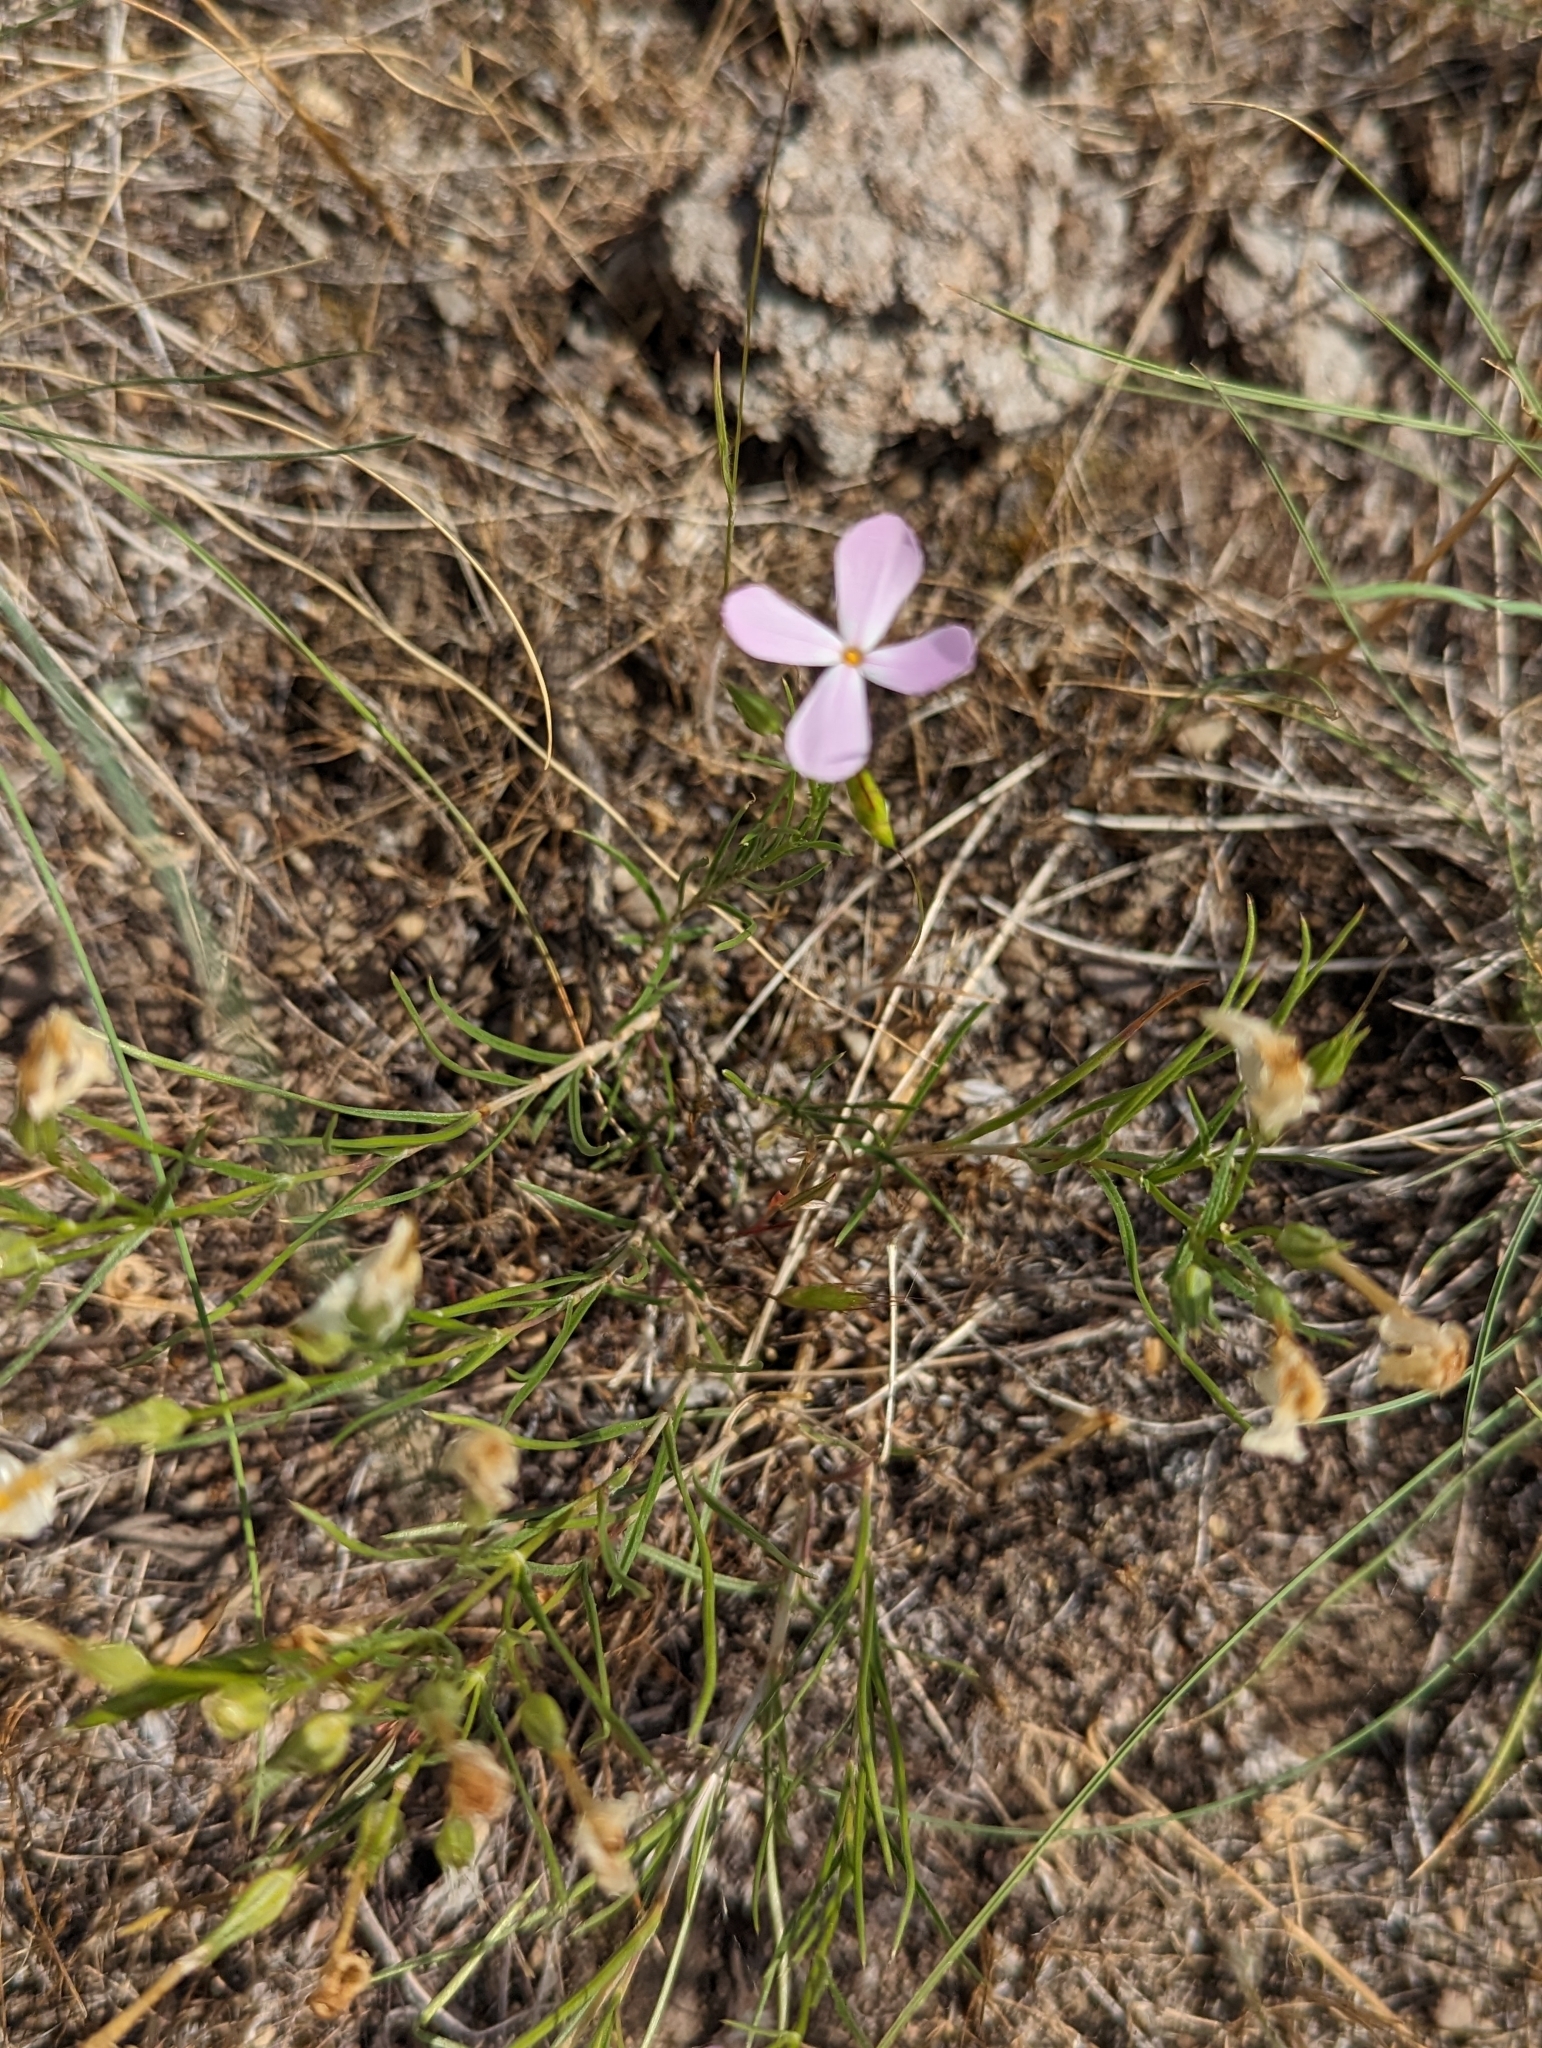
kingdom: Plantae
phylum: Tracheophyta
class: Magnoliopsida
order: Ericales
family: Polemoniaceae
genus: Phlox
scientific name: Phlox longifolia
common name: Longleaf phlox
